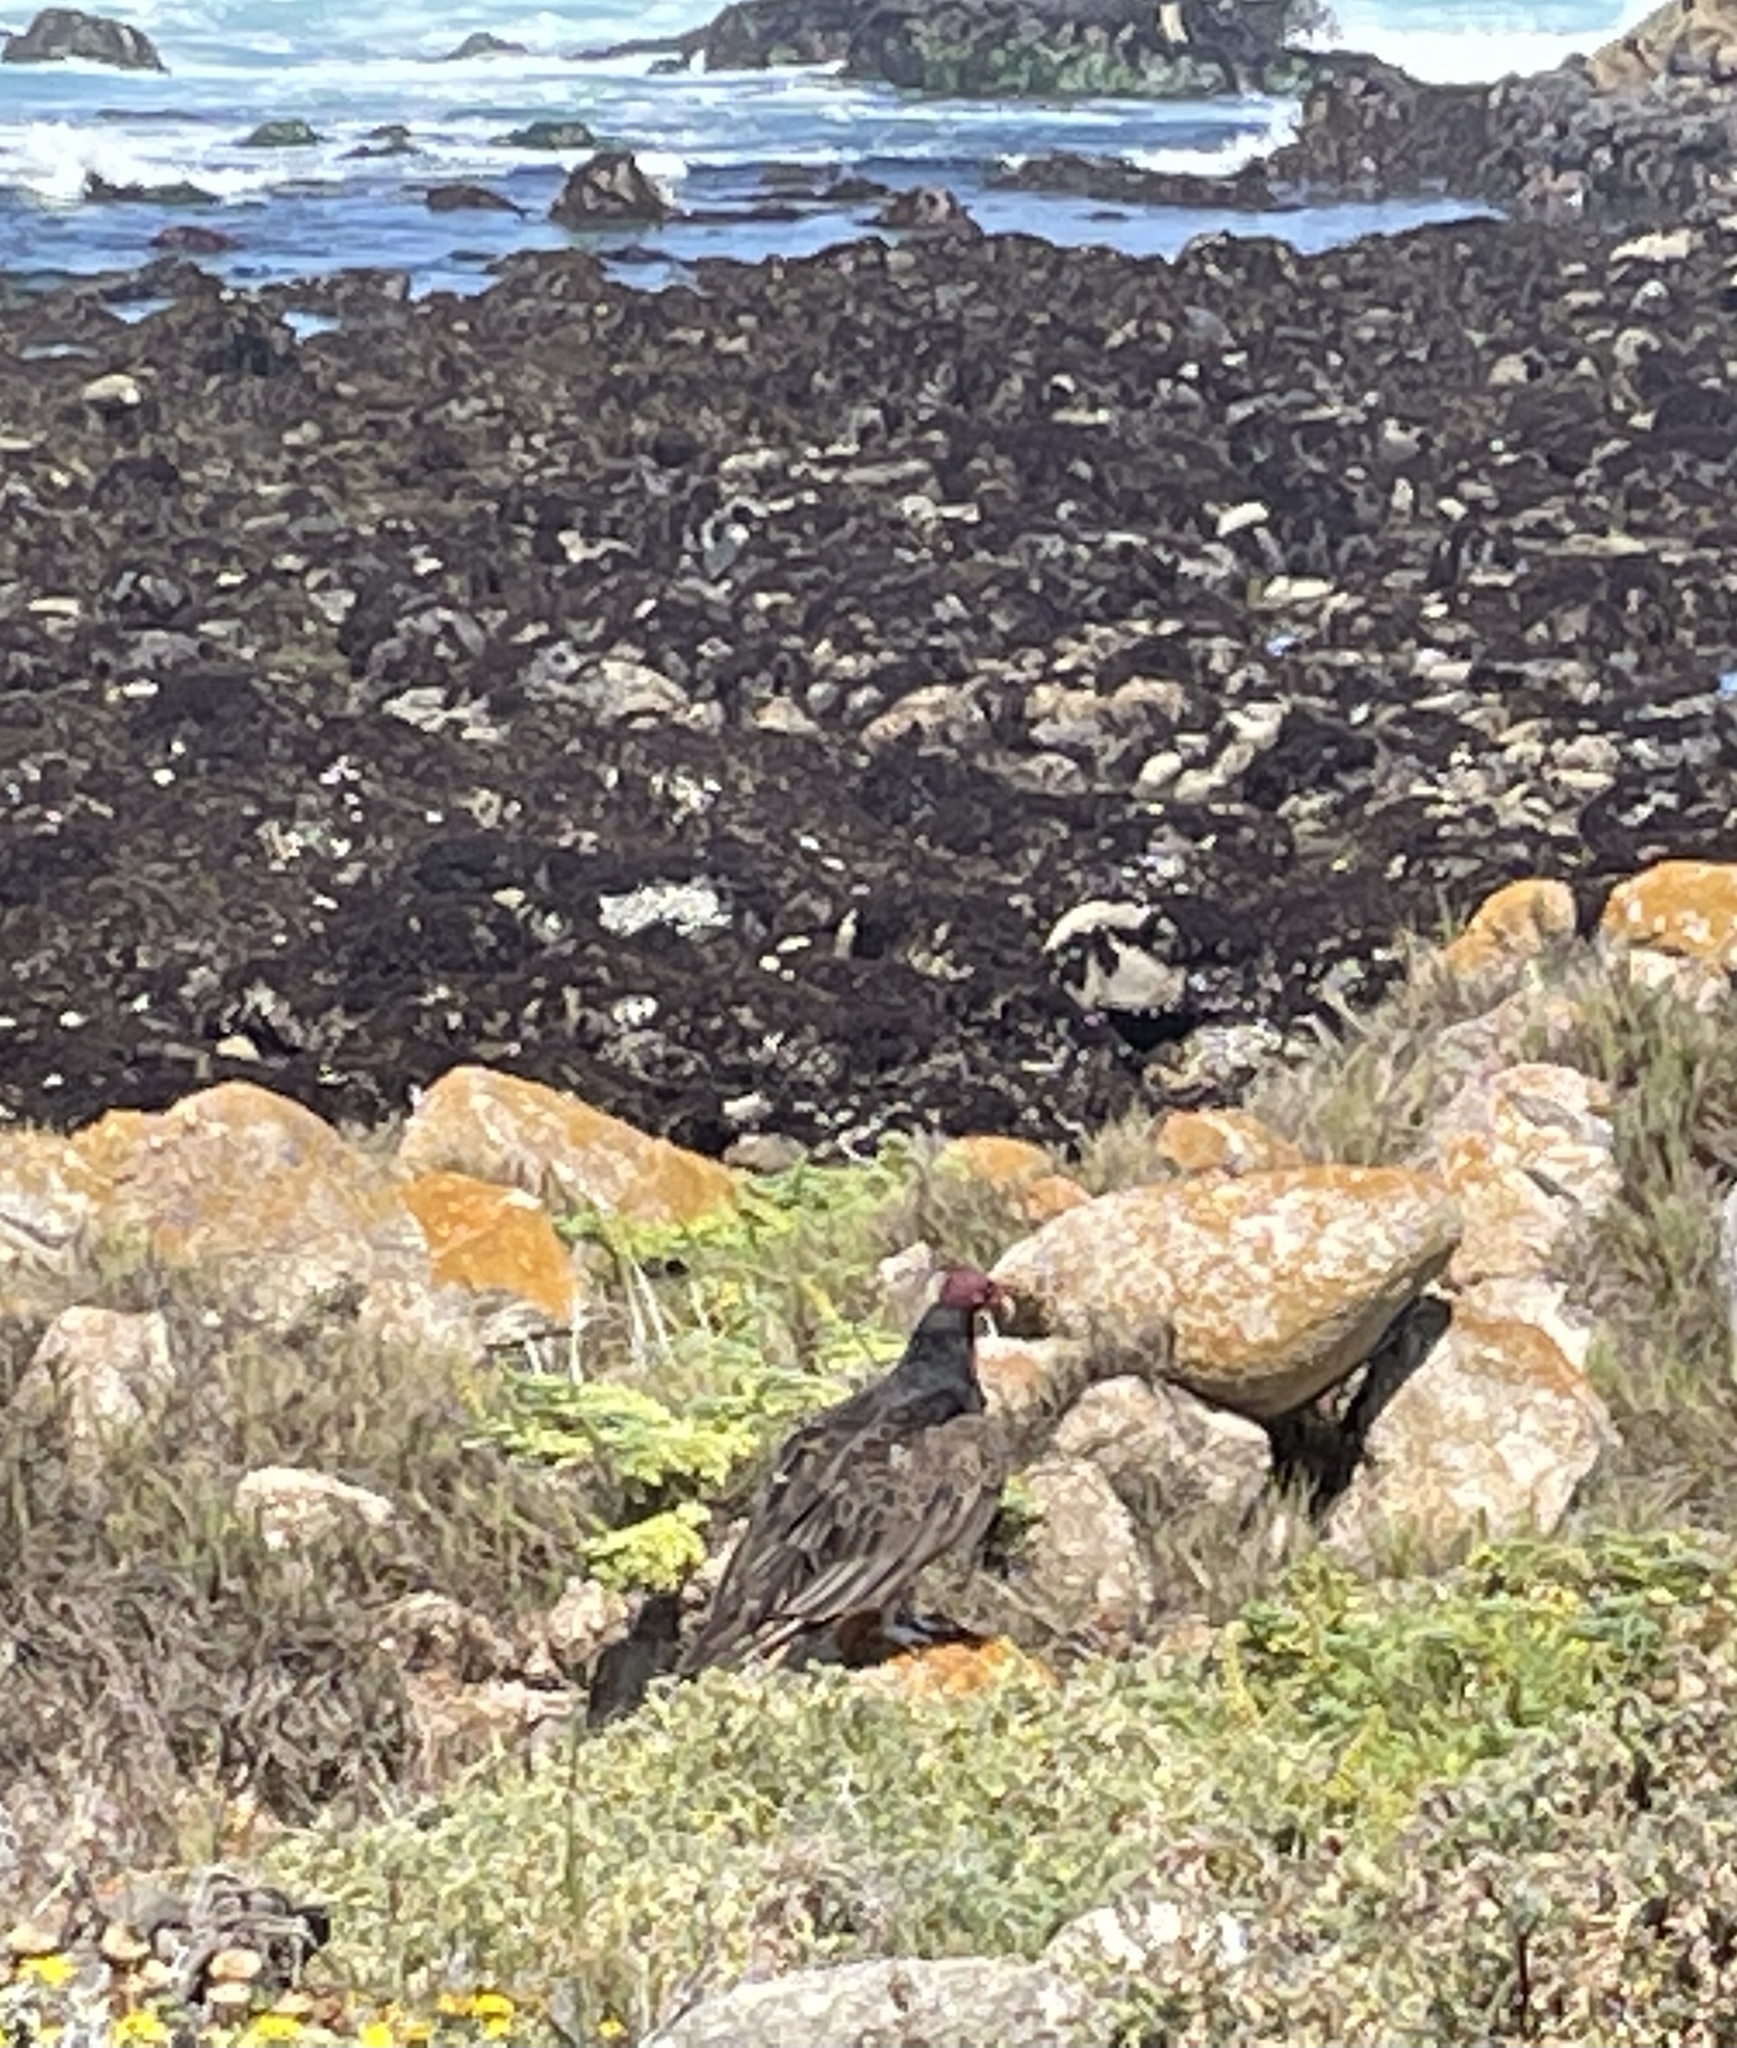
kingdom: Animalia
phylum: Chordata
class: Aves
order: Accipitriformes
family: Cathartidae
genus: Cathartes
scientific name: Cathartes aura
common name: Turkey vulture
